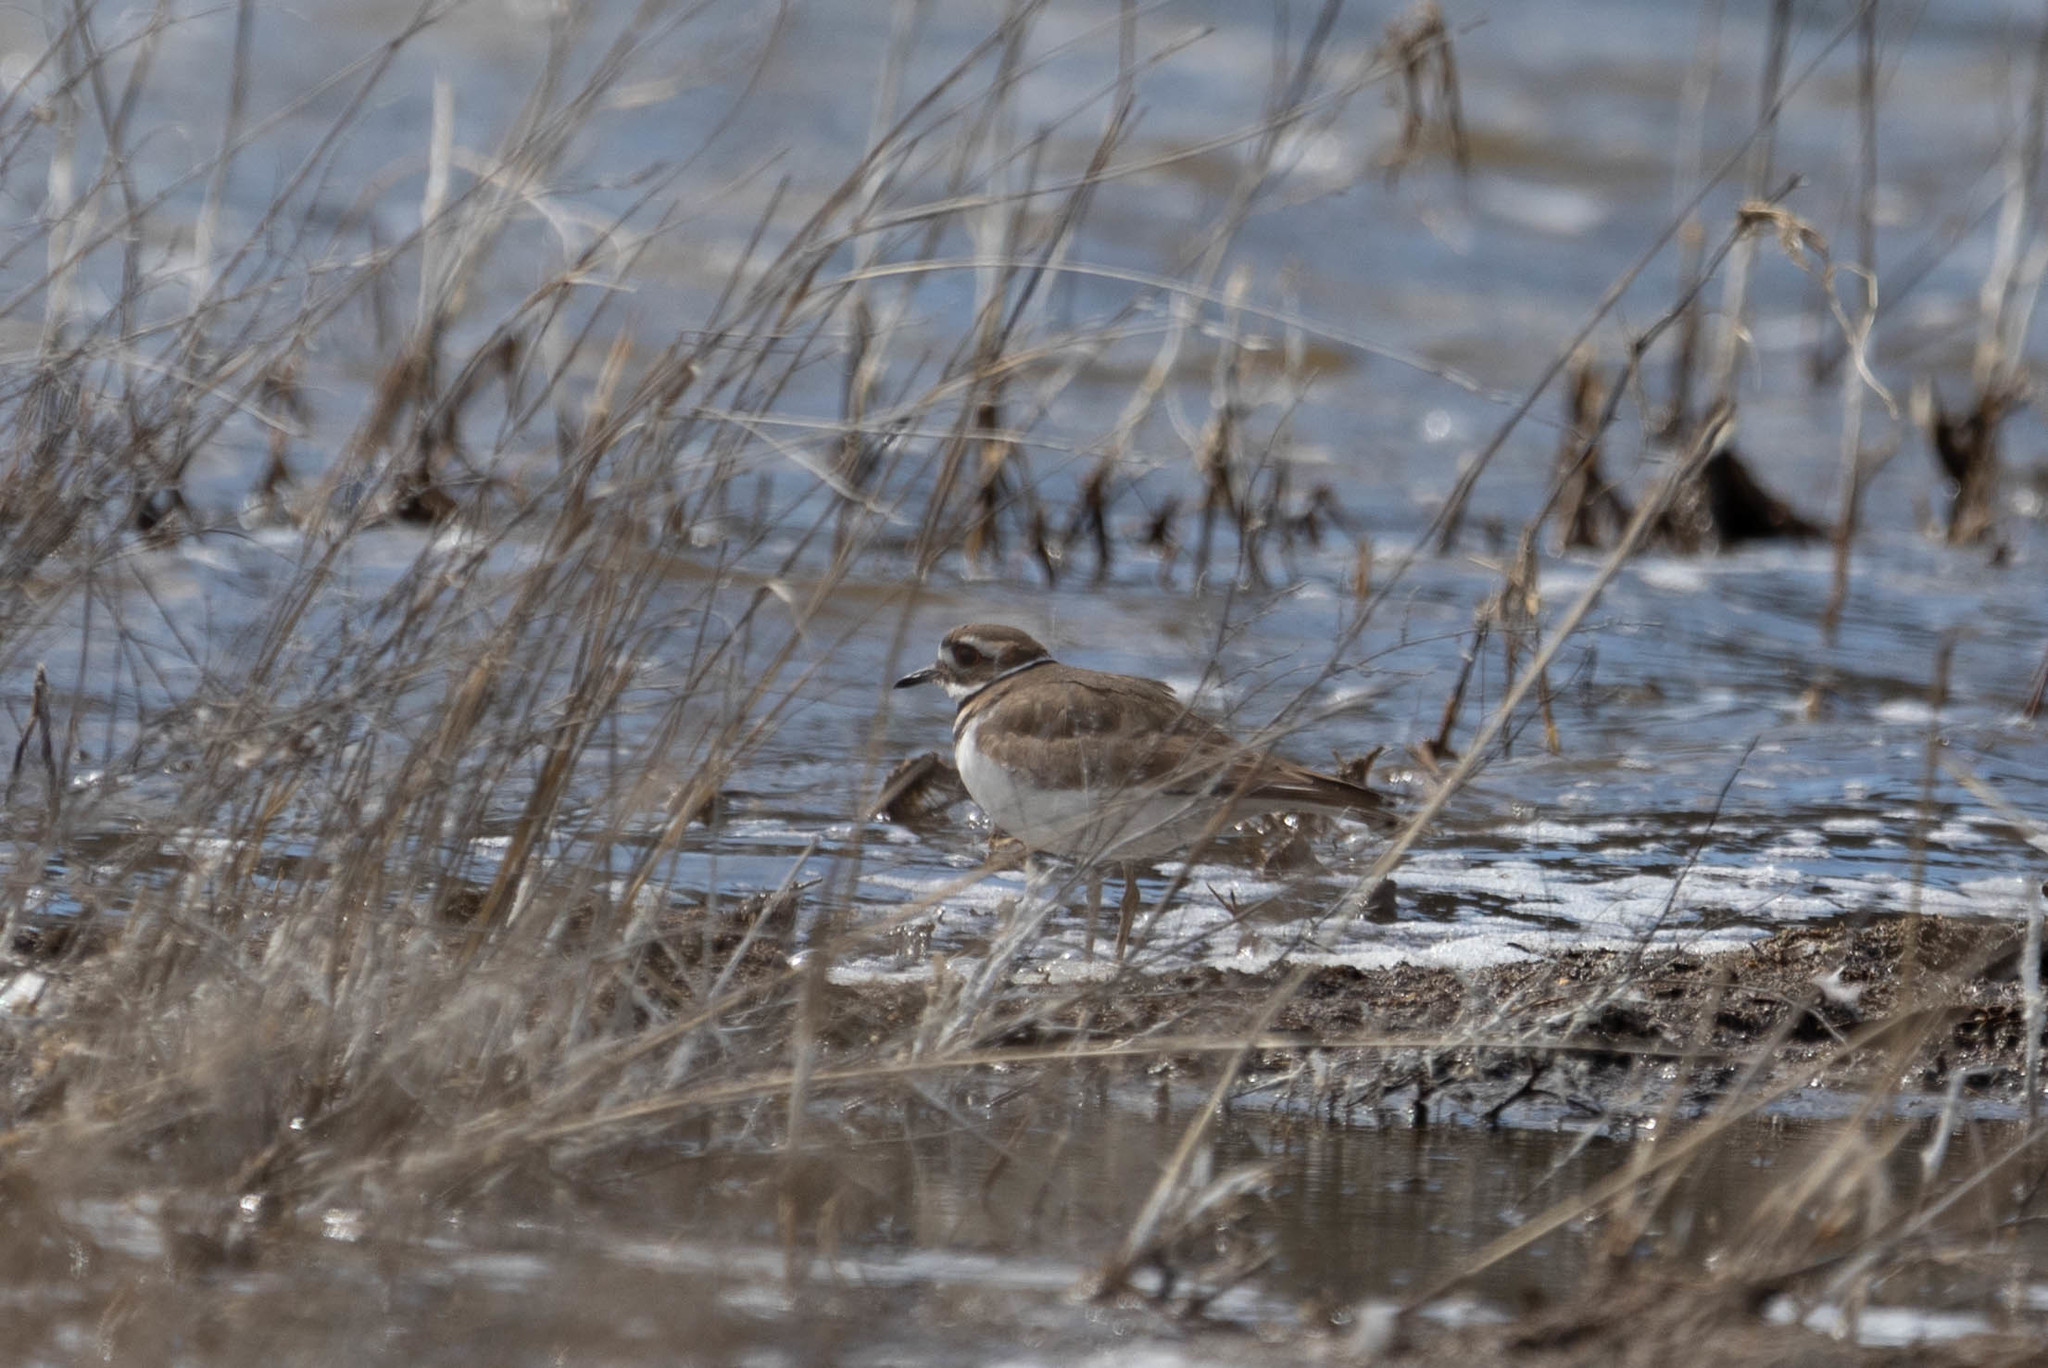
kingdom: Animalia
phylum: Chordata
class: Aves
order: Charadriiformes
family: Charadriidae
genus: Charadrius
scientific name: Charadrius vociferus
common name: Killdeer
